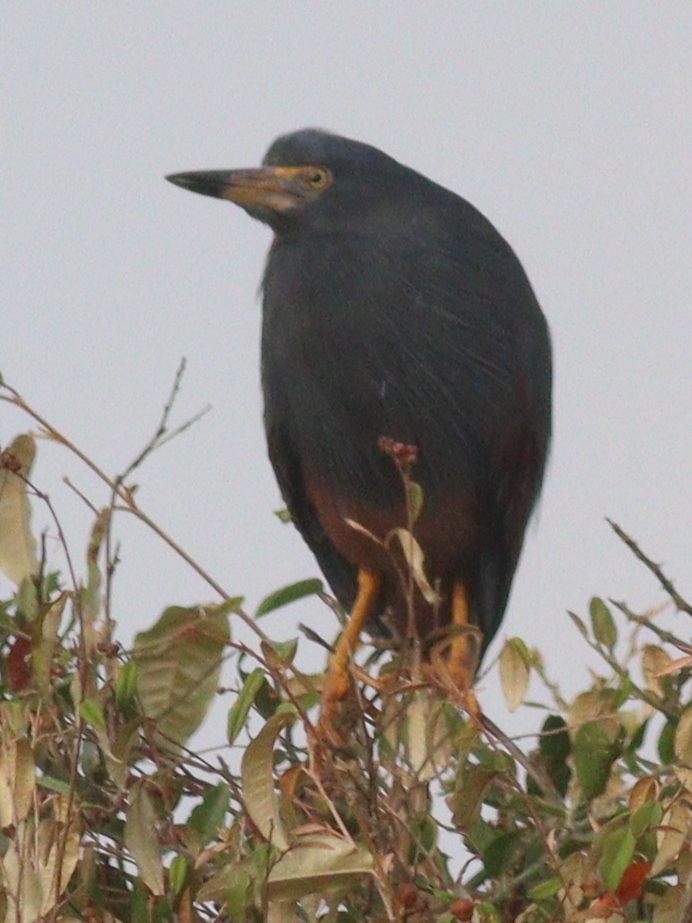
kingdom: Animalia
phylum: Chordata
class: Aves
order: Pelecaniformes
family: Ardeidae
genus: Ardeola
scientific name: Ardeola rufiventris
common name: Rufous-bellied heron
